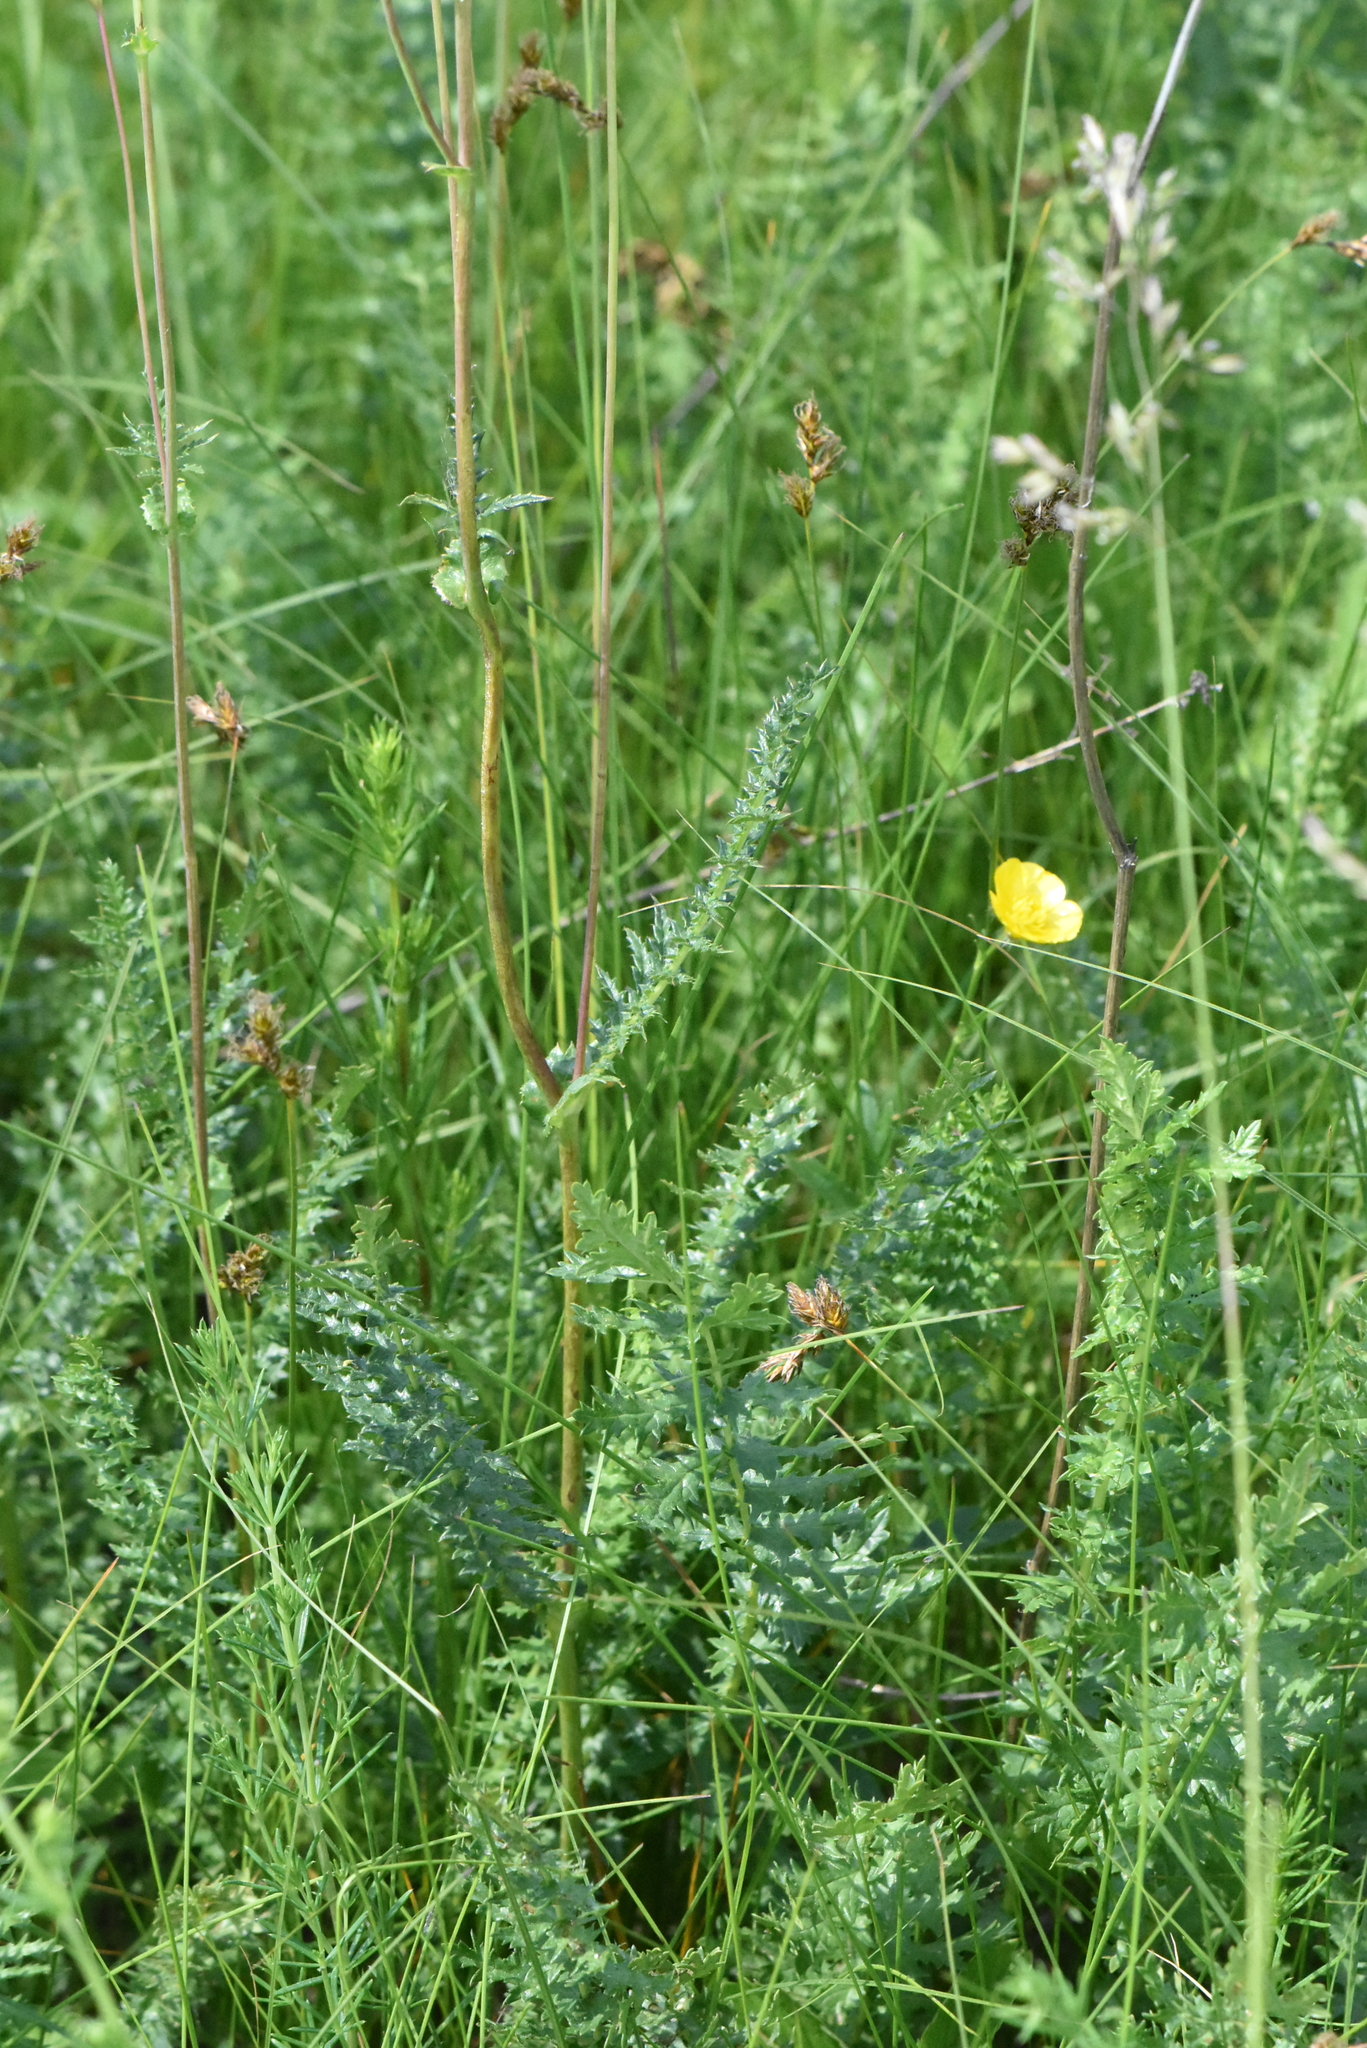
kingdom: Plantae
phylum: Tracheophyta
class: Magnoliopsida
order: Rosales
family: Rosaceae
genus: Filipendula
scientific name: Filipendula vulgaris
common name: Dropwort
